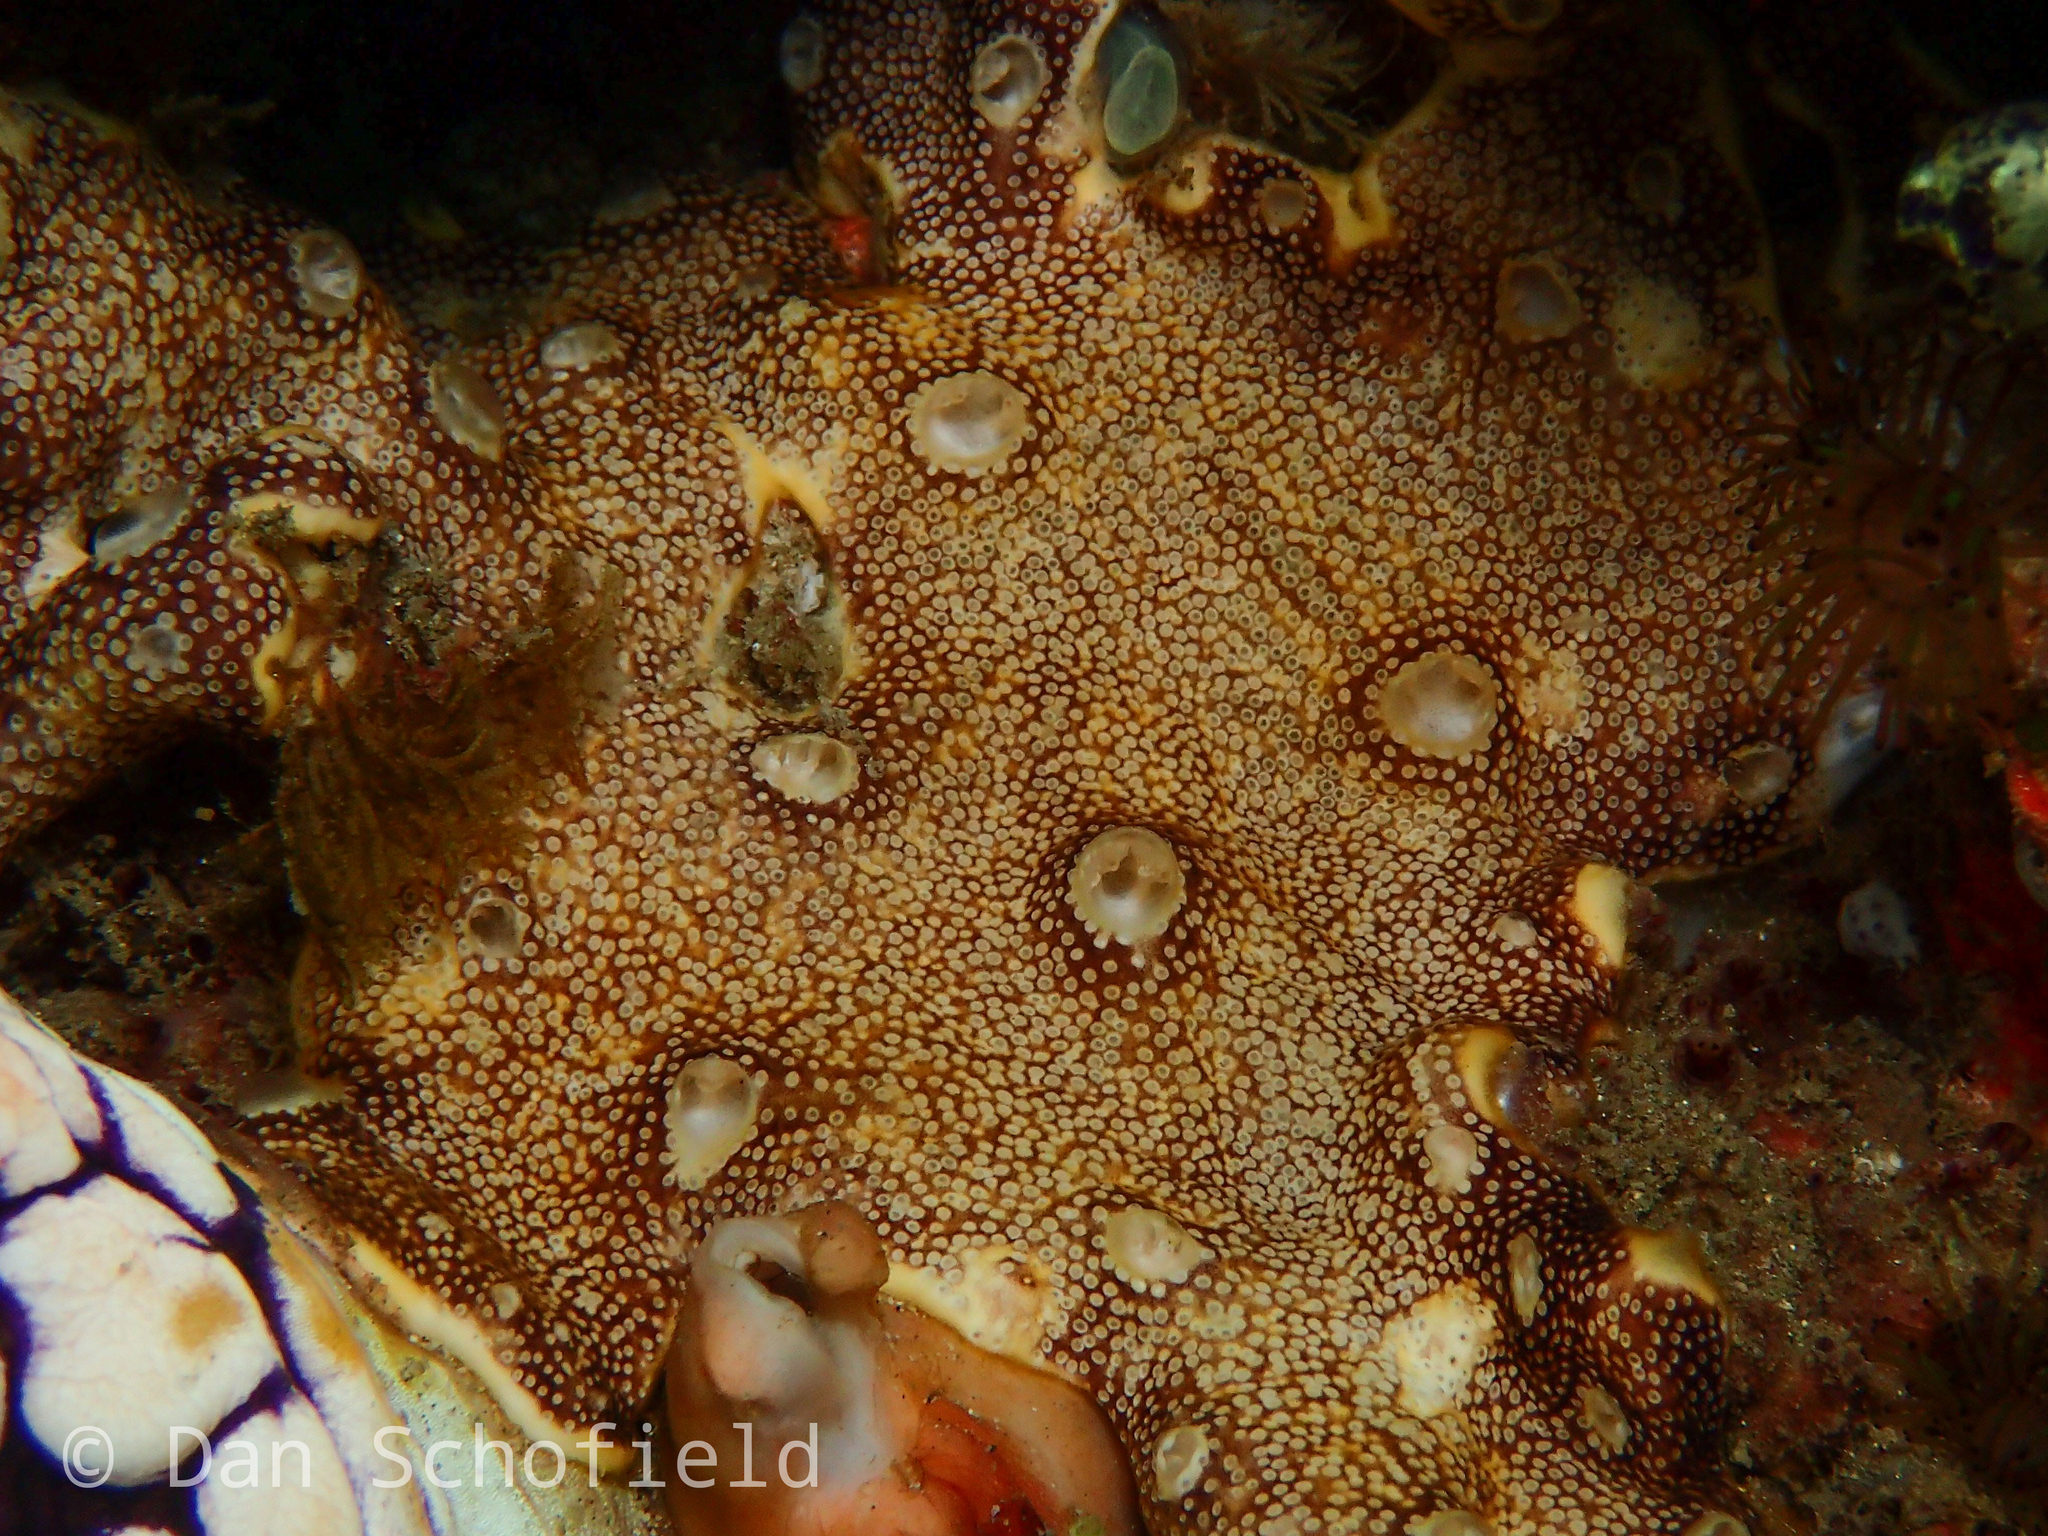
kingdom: Animalia
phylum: Chordata
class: Ascidiacea
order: Aplousobranchia
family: Didemnidae
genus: Leptoclinides
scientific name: Leptoclinides reticulatus
